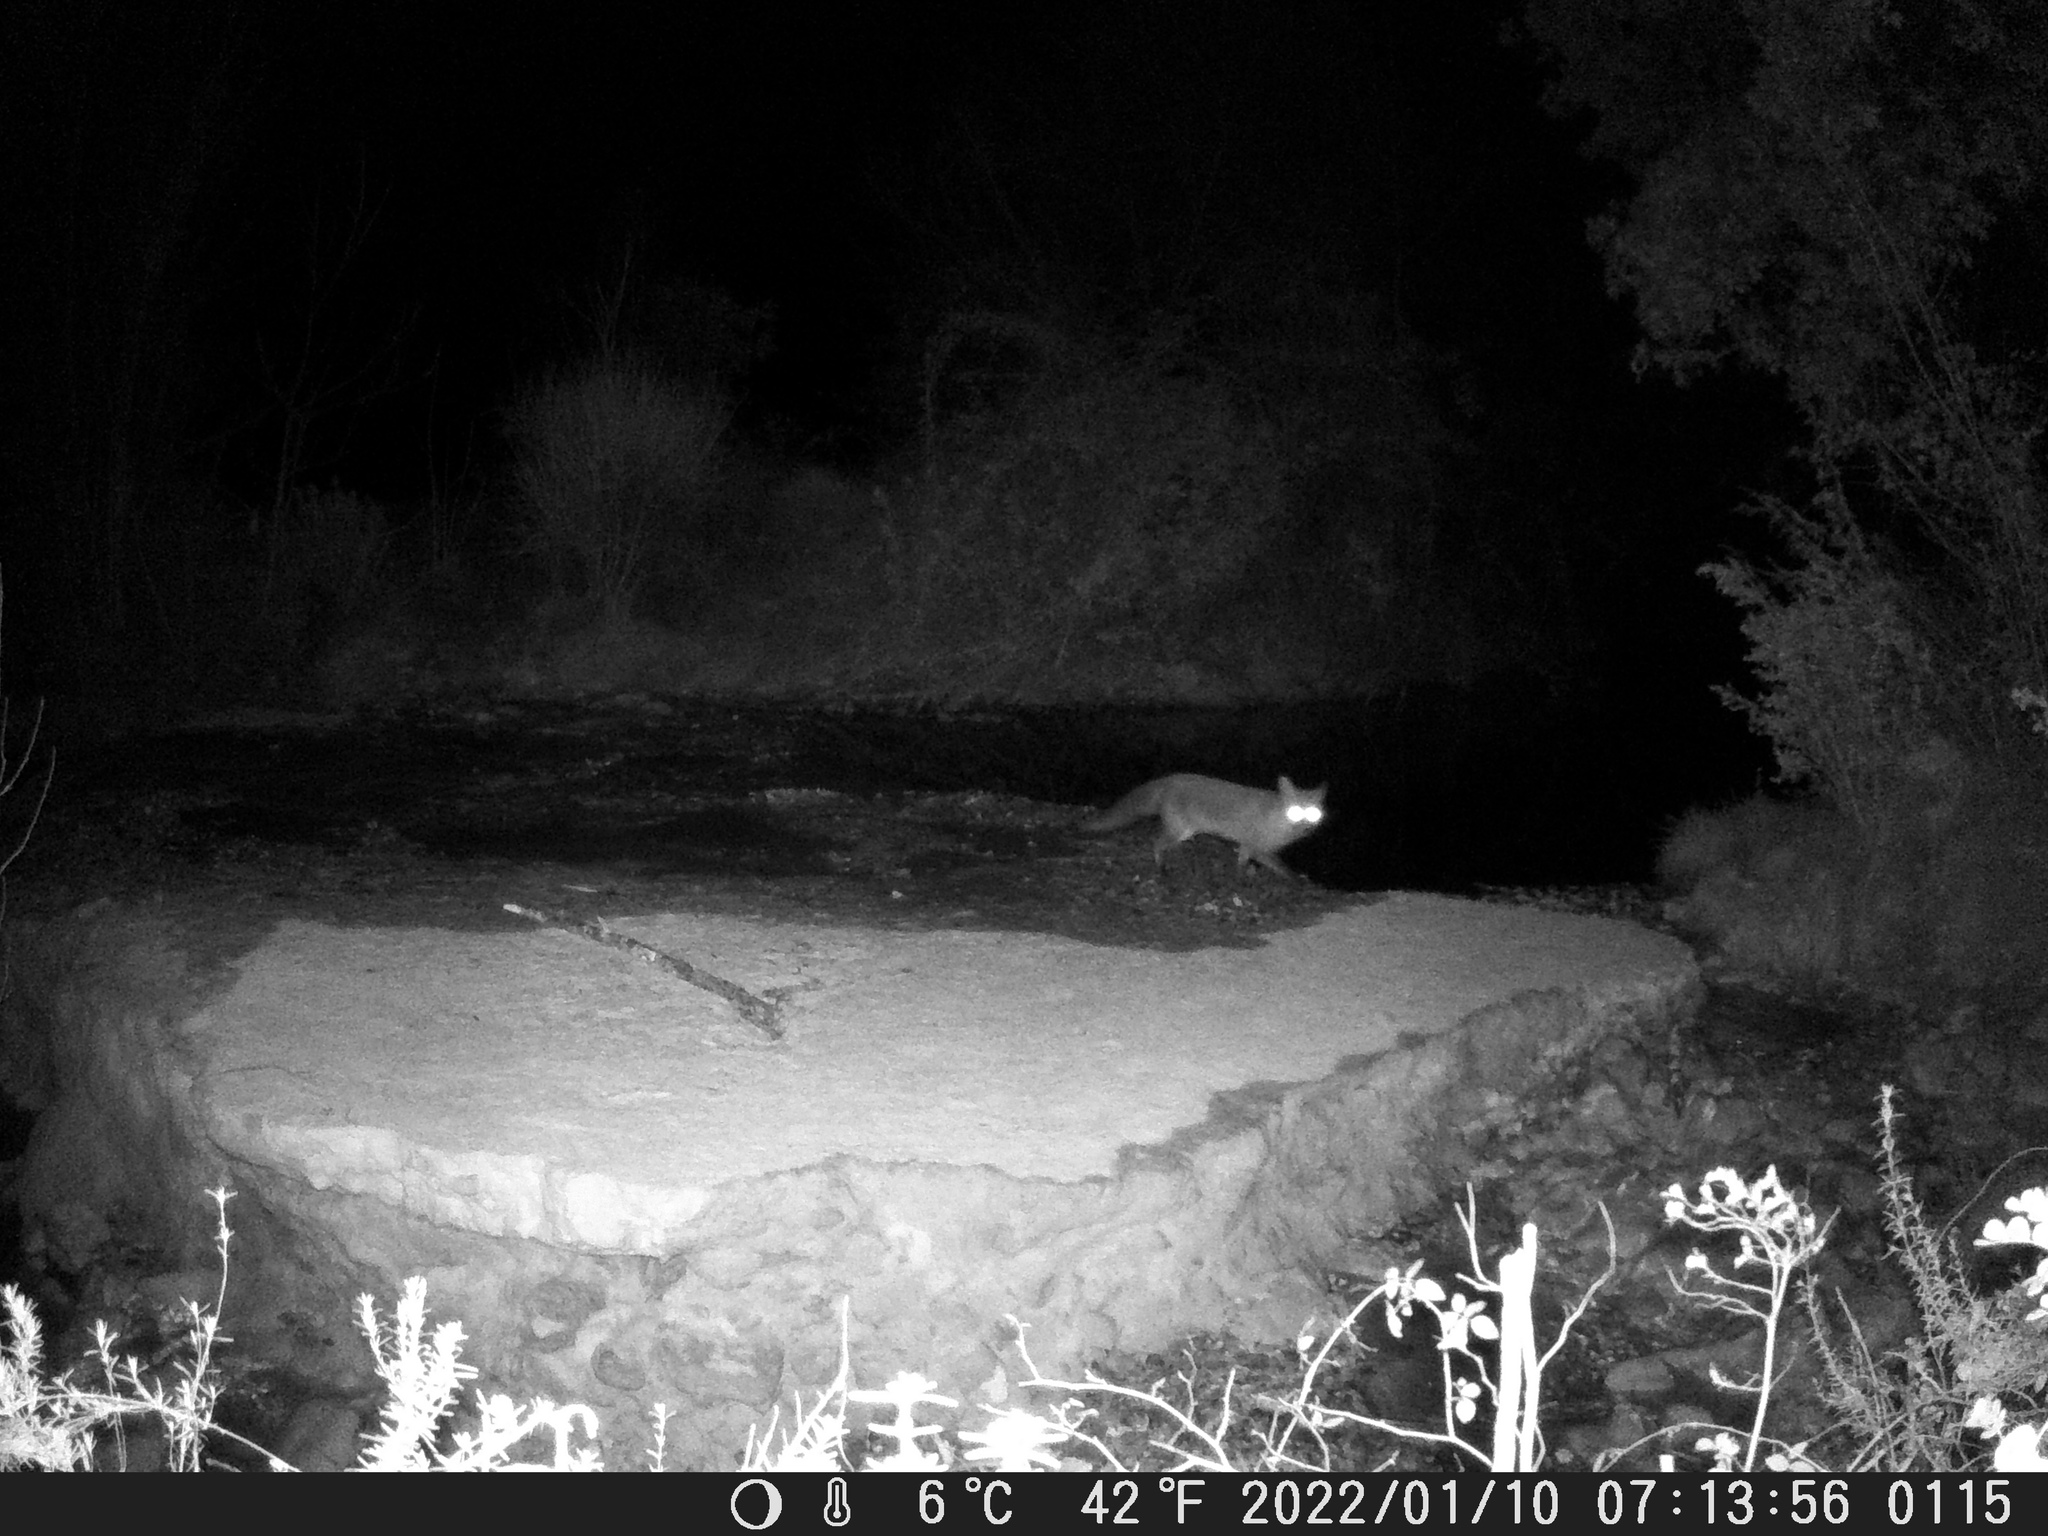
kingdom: Animalia
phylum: Chordata
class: Mammalia
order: Carnivora
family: Canidae
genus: Vulpes
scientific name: Vulpes vulpes
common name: Red fox
